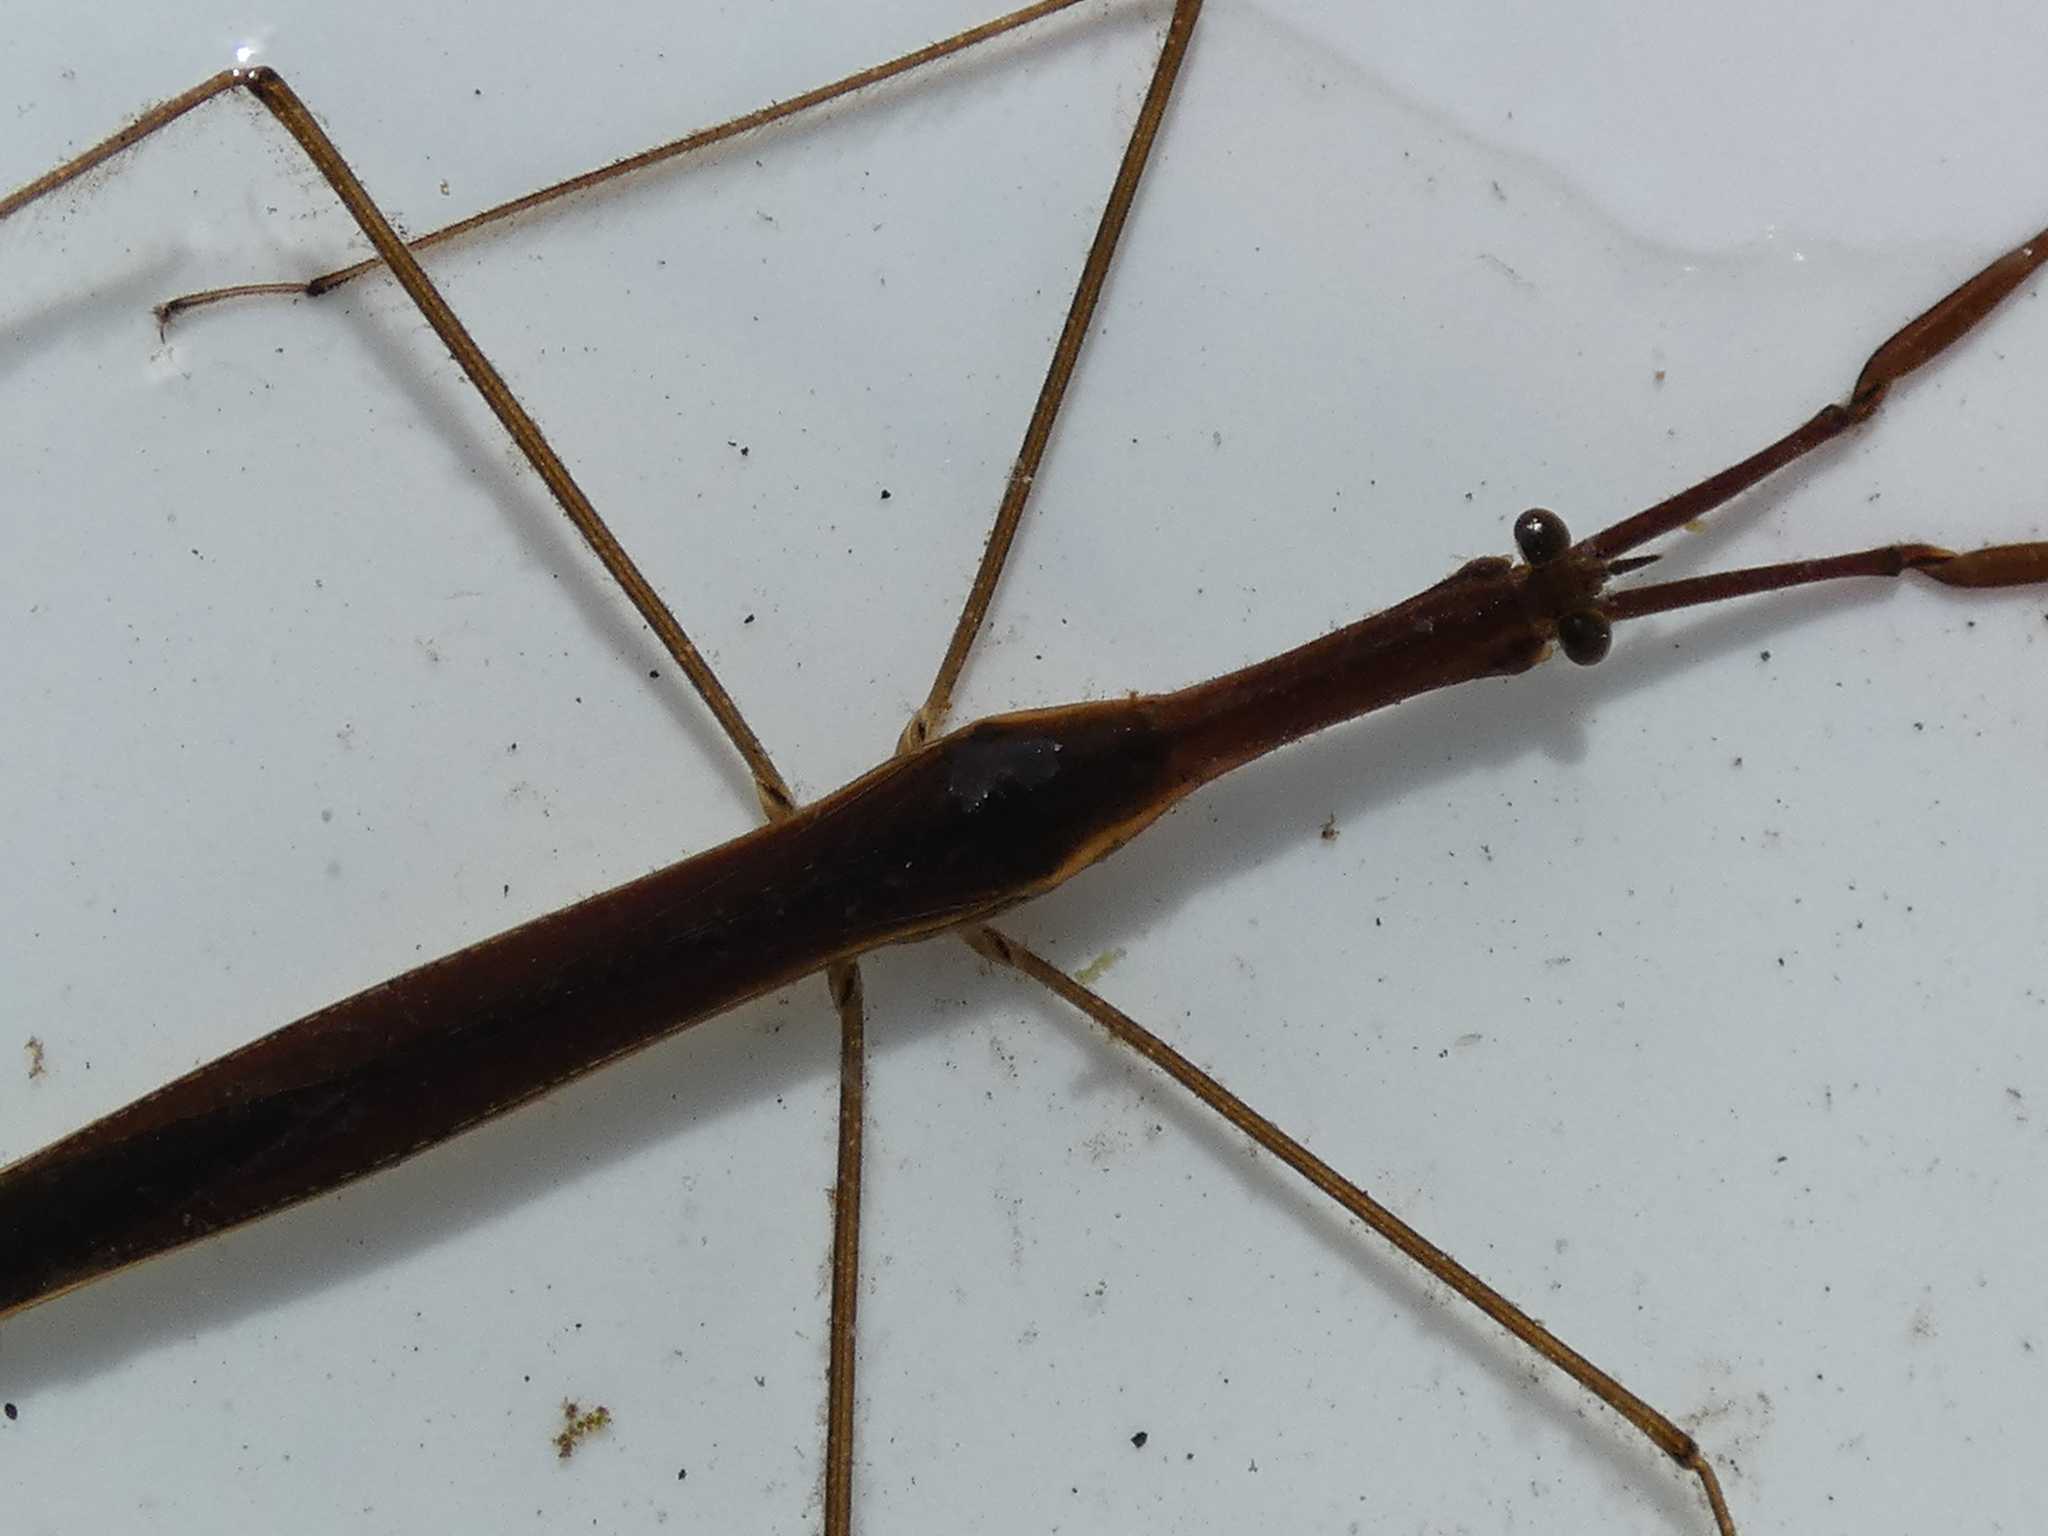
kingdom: Animalia
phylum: Arthropoda
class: Insecta
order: Hemiptera
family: Nepidae
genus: Ranatra
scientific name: Ranatra
